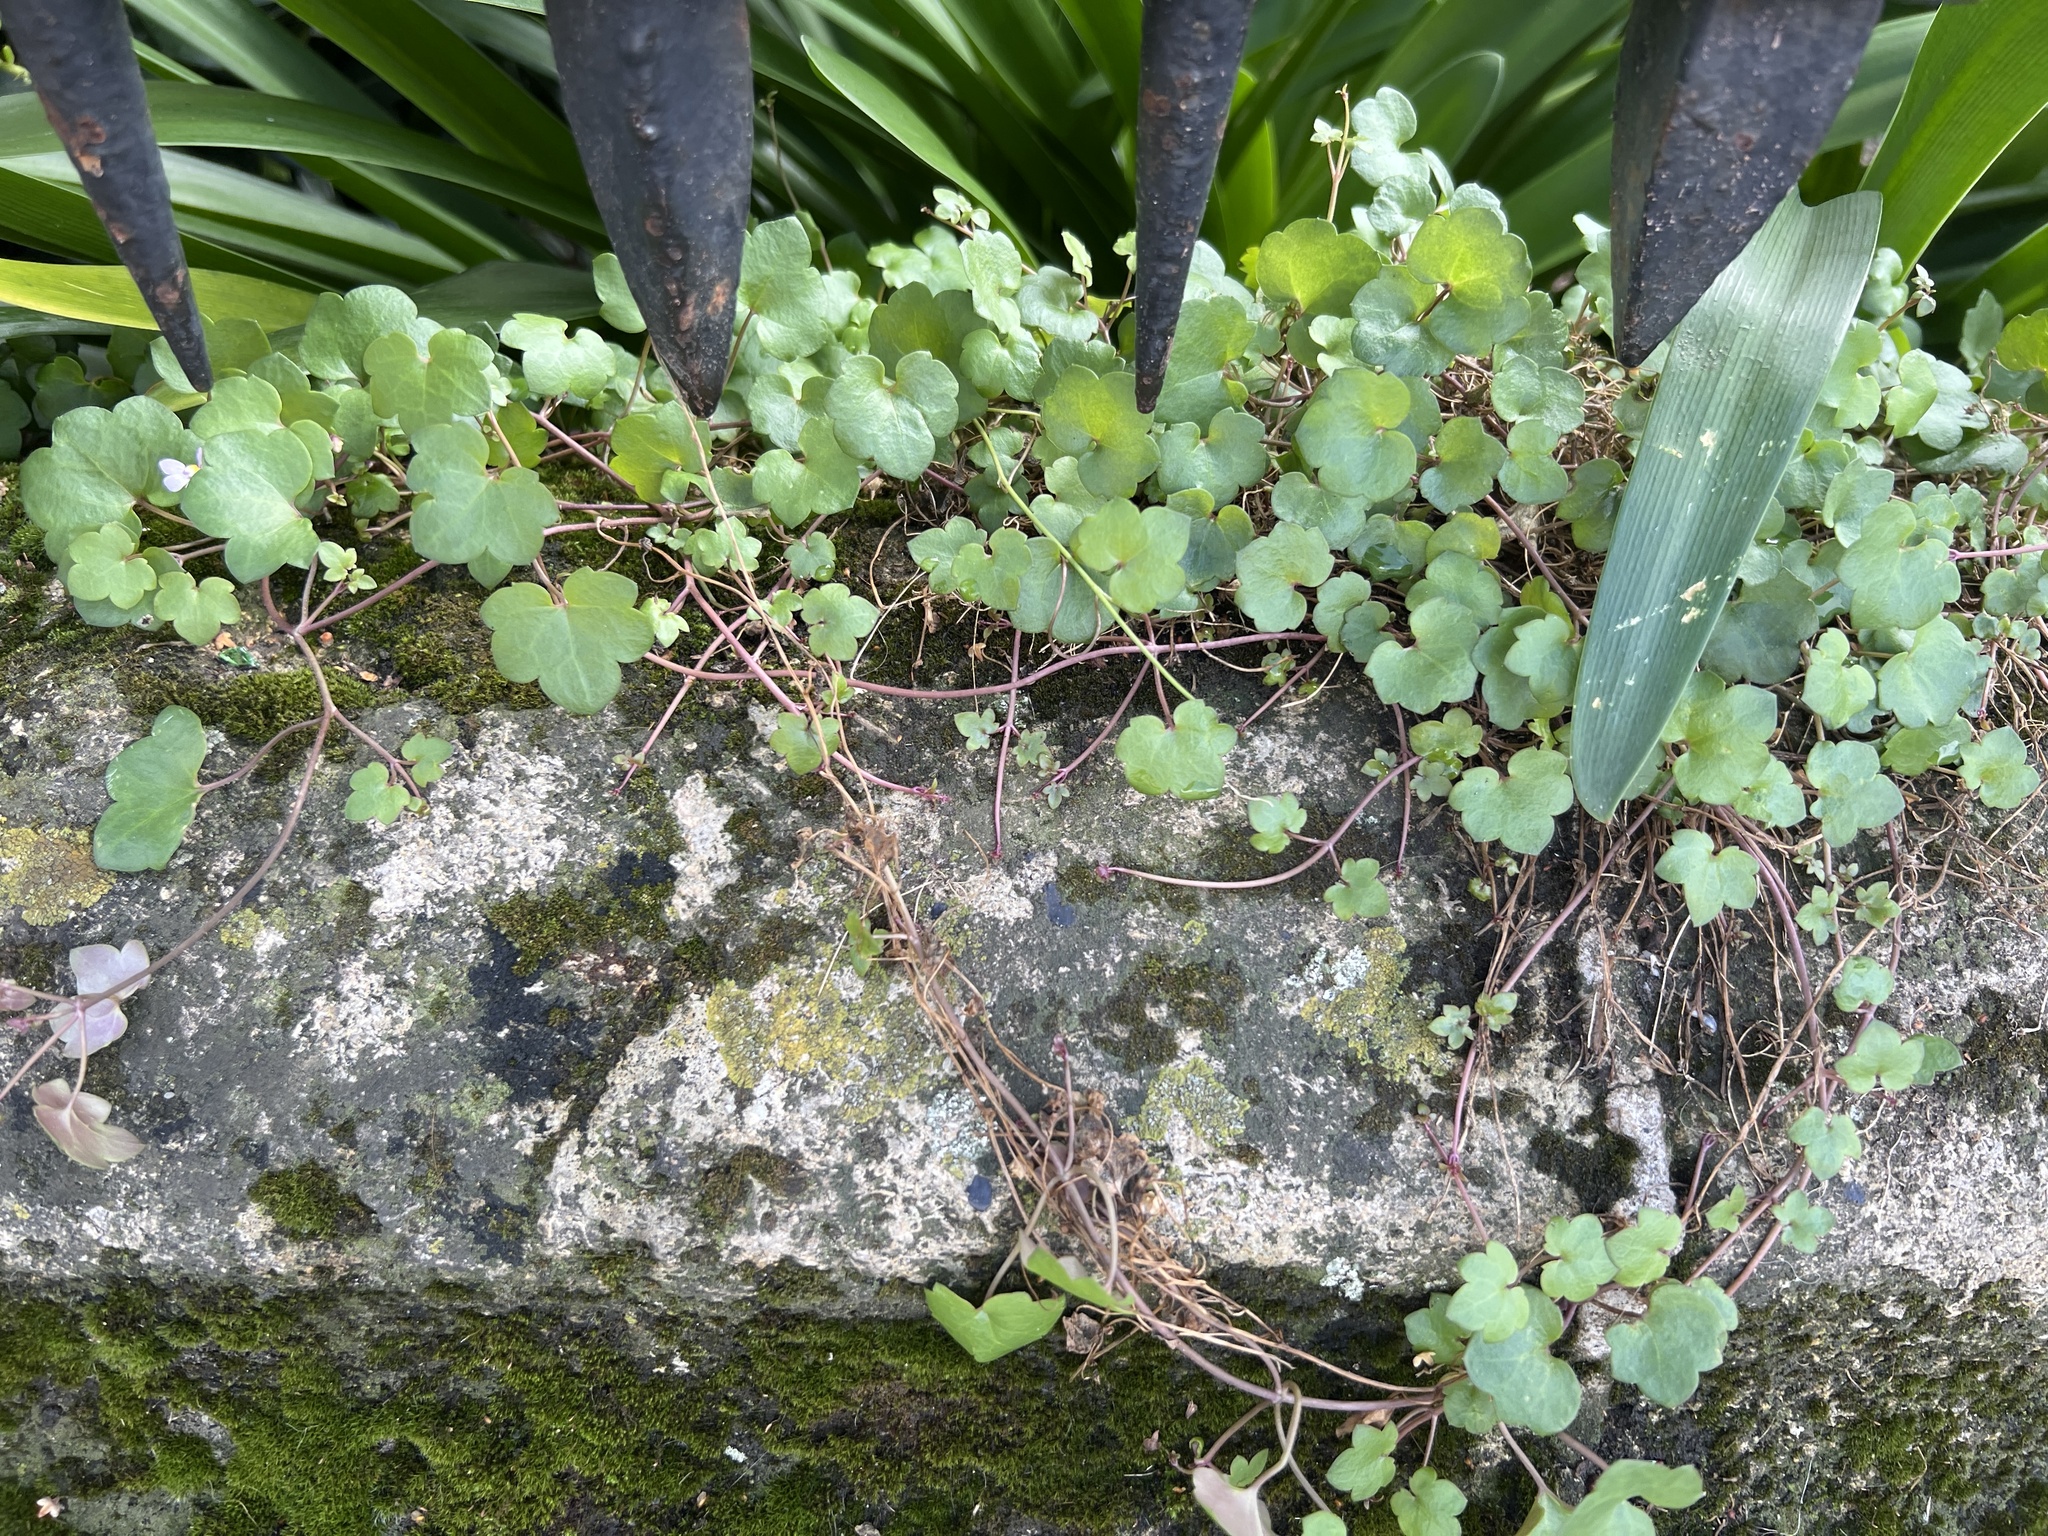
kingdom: Plantae
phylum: Tracheophyta
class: Magnoliopsida
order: Lamiales
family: Plantaginaceae
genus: Cymbalaria
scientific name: Cymbalaria muralis
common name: Ivy-leaved toadflax
